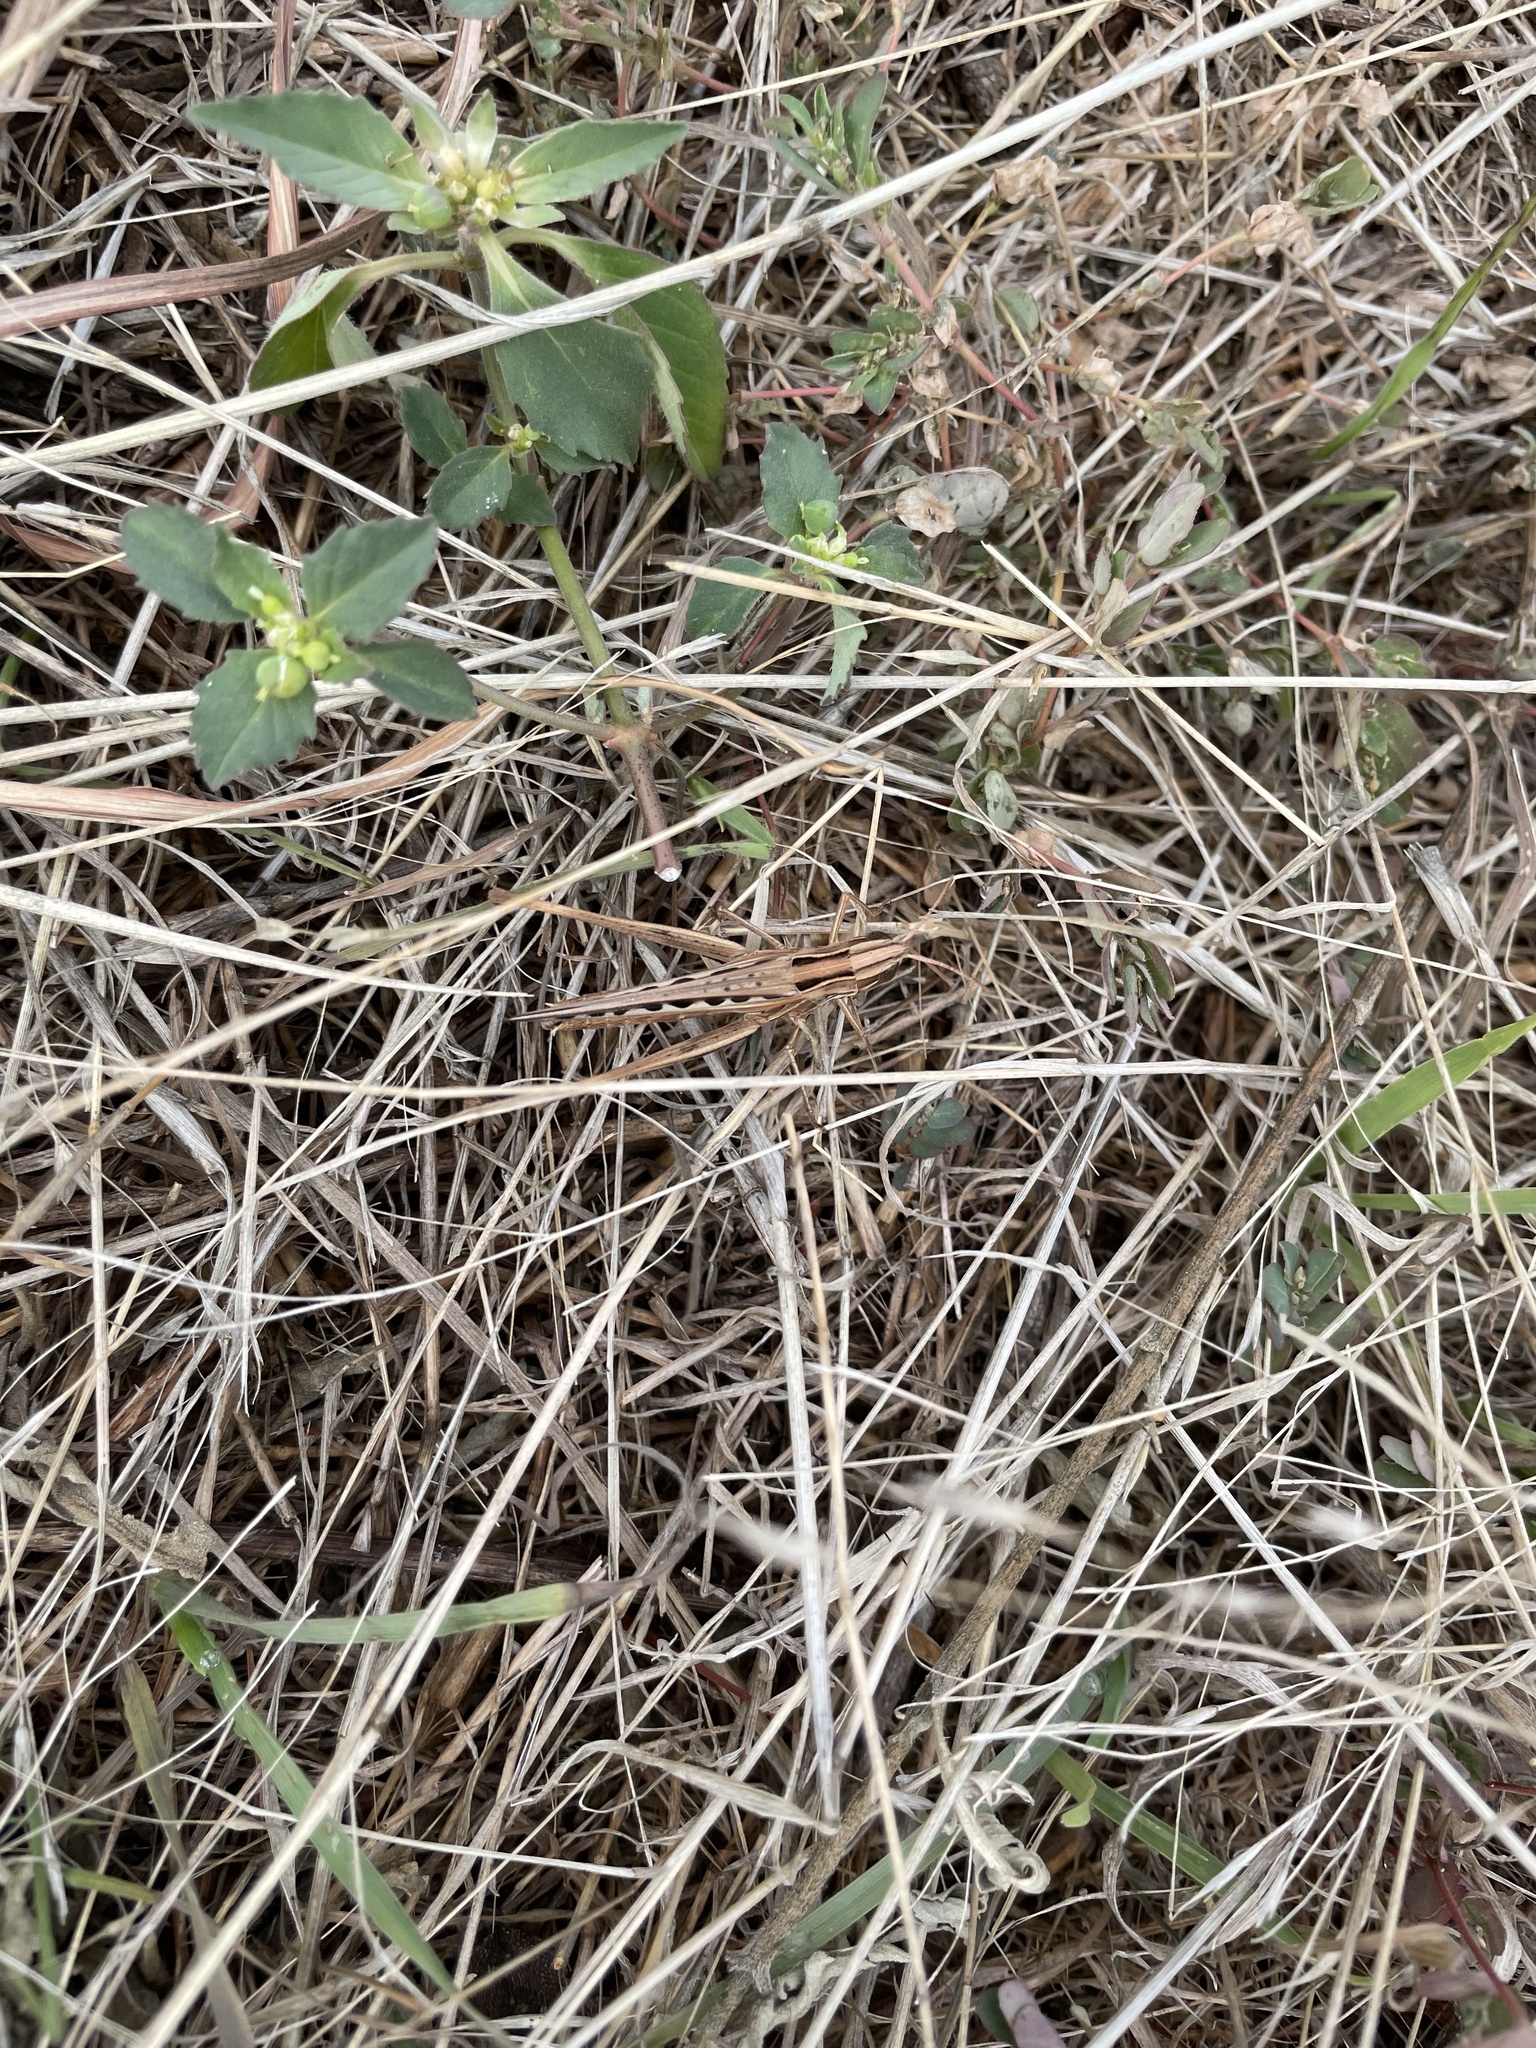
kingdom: Animalia
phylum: Arthropoda
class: Insecta
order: Orthoptera
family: Acrididae
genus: Syrbula
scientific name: Syrbula admirabilis
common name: Handsome grasshopper
